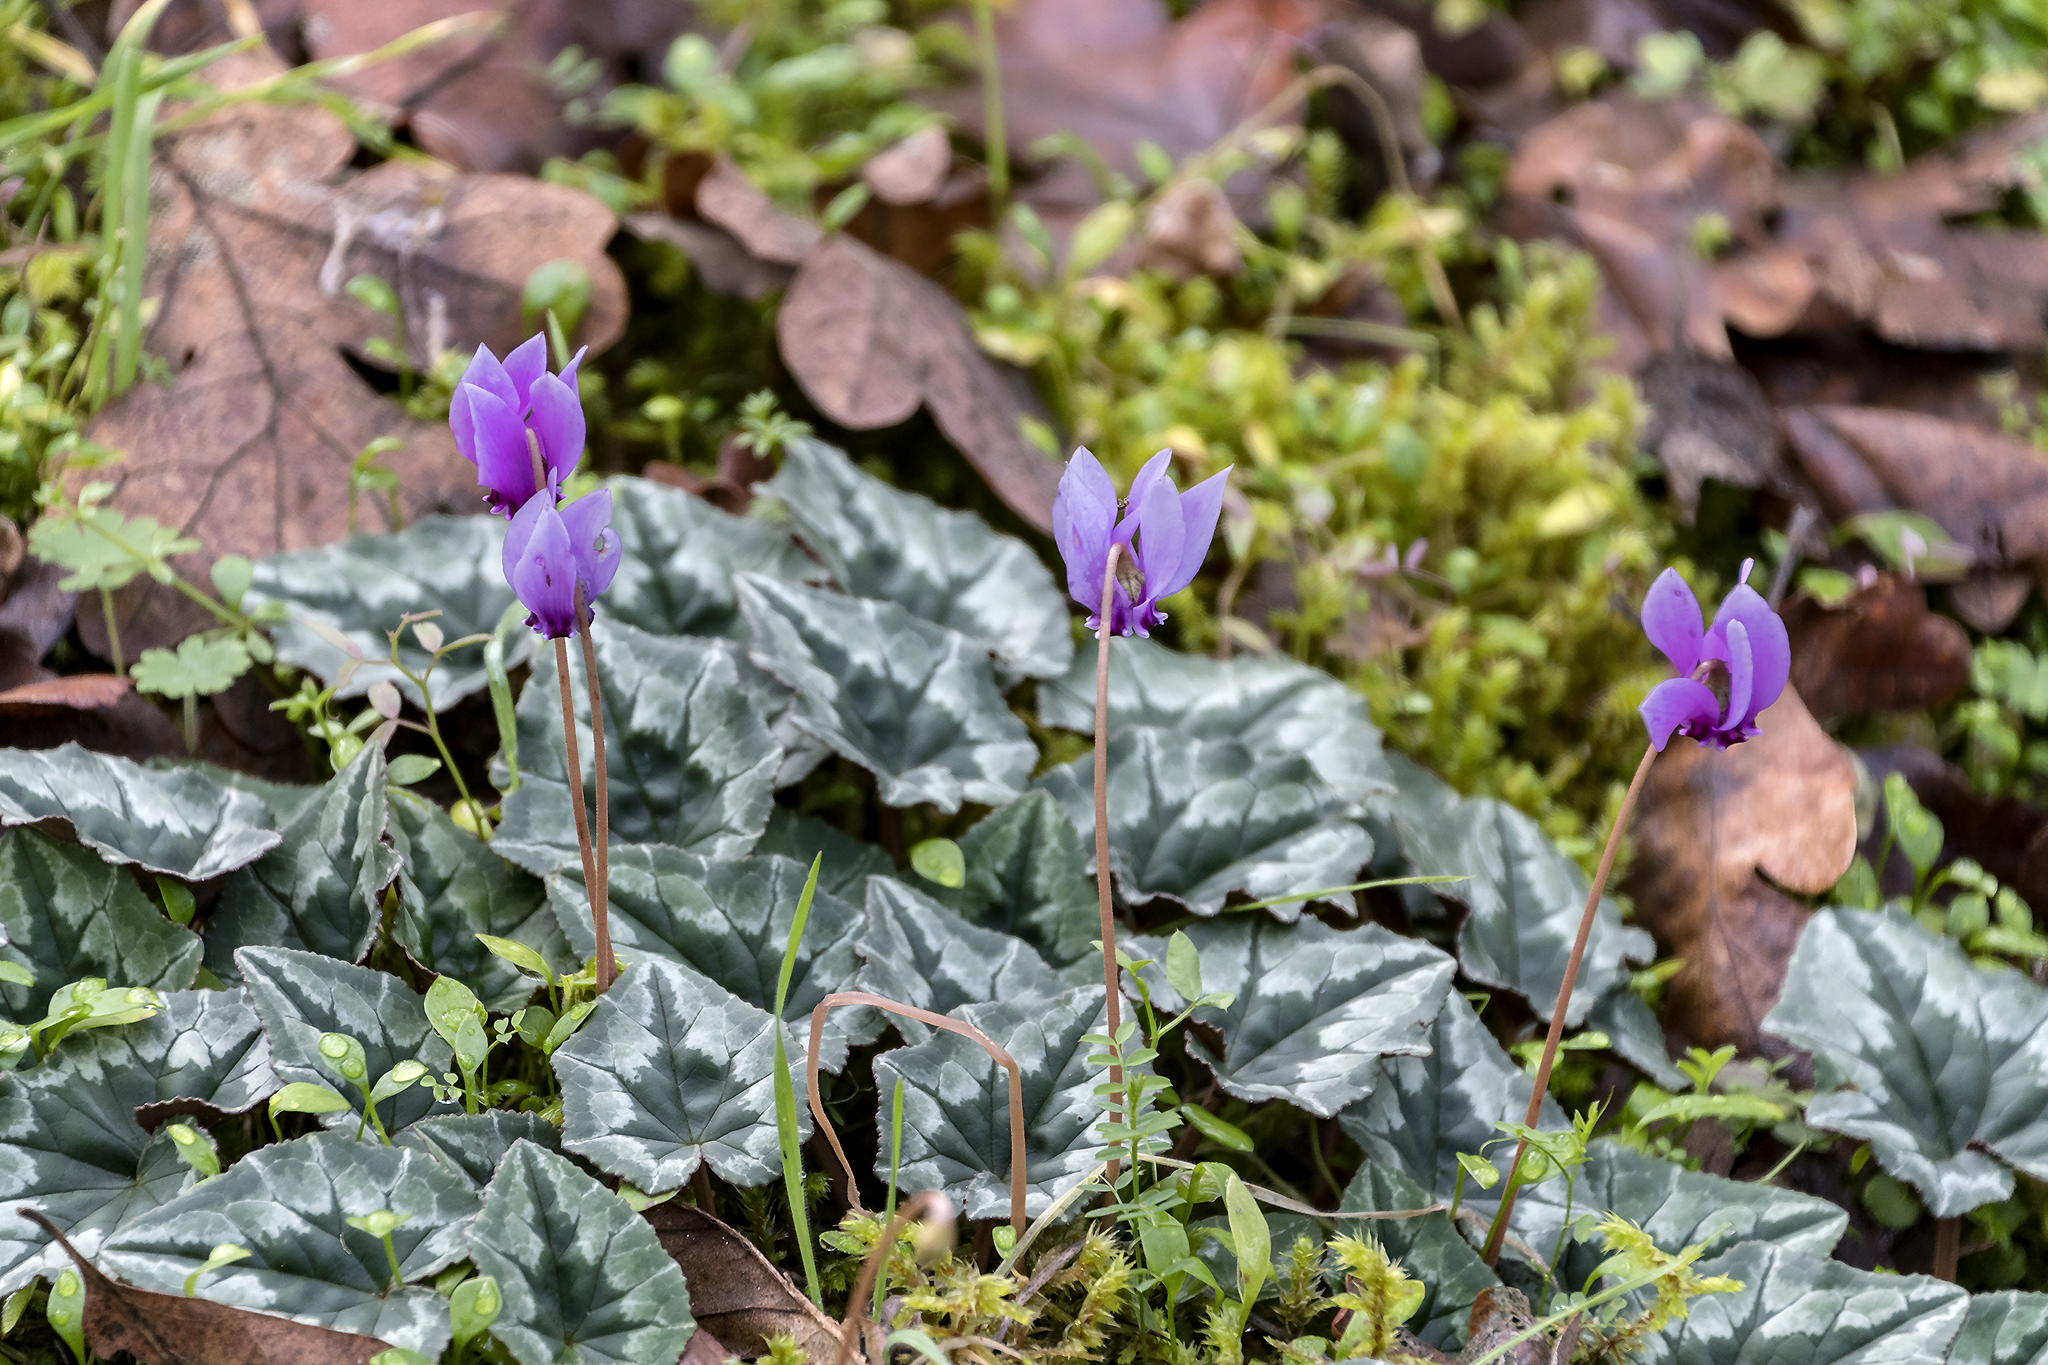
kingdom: Plantae
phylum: Tracheophyta
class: Magnoliopsida
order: Ericales
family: Primulaceae
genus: Cyclamen
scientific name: Cyclamen hederifolium
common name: Sowbread
